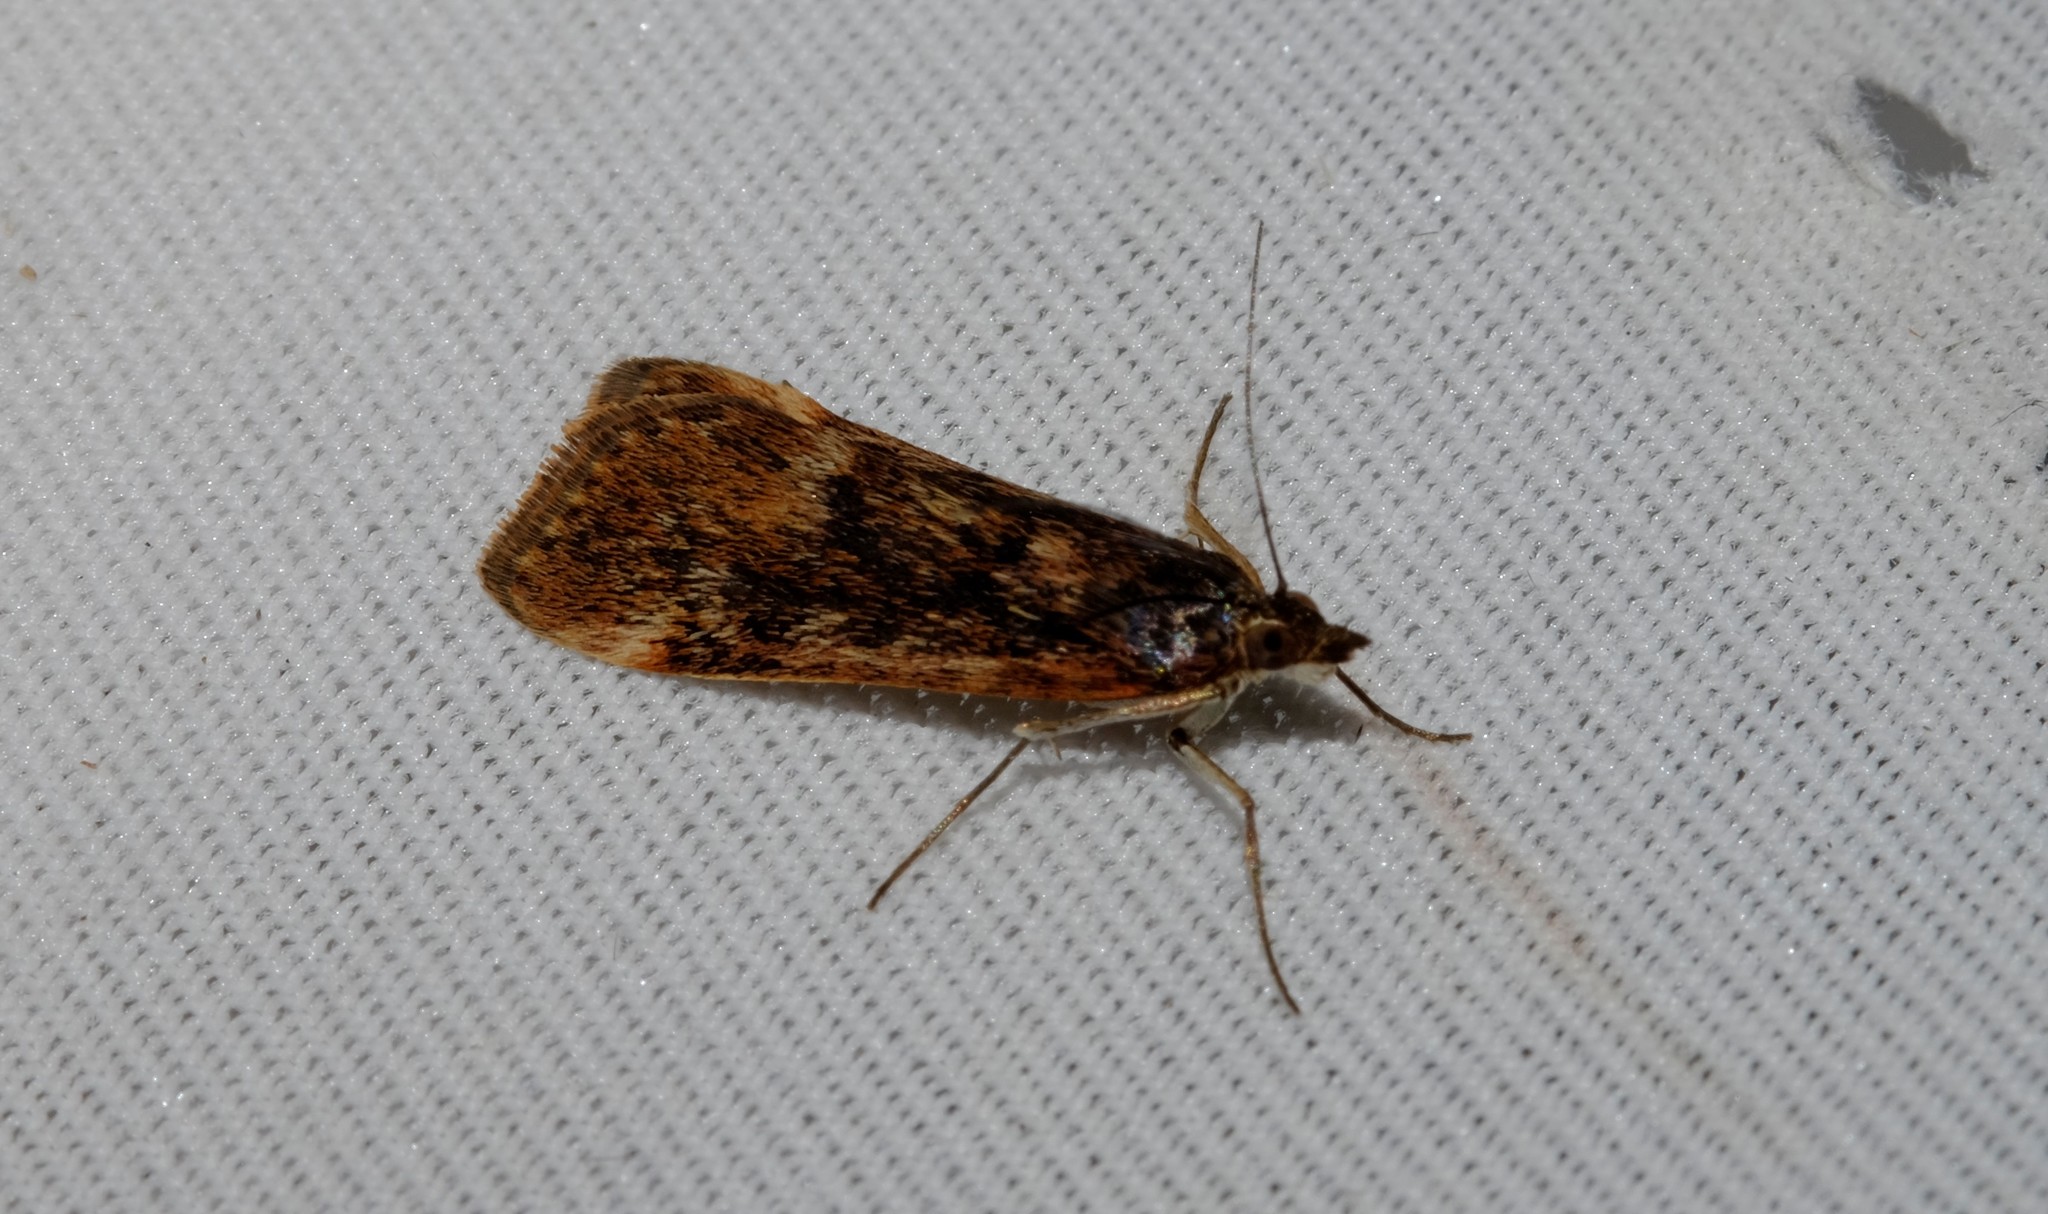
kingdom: Animalia
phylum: Arthropoda
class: Insecta
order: Lepidoptera
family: Crambidae
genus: Achyra
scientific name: Achyra affinitalis
